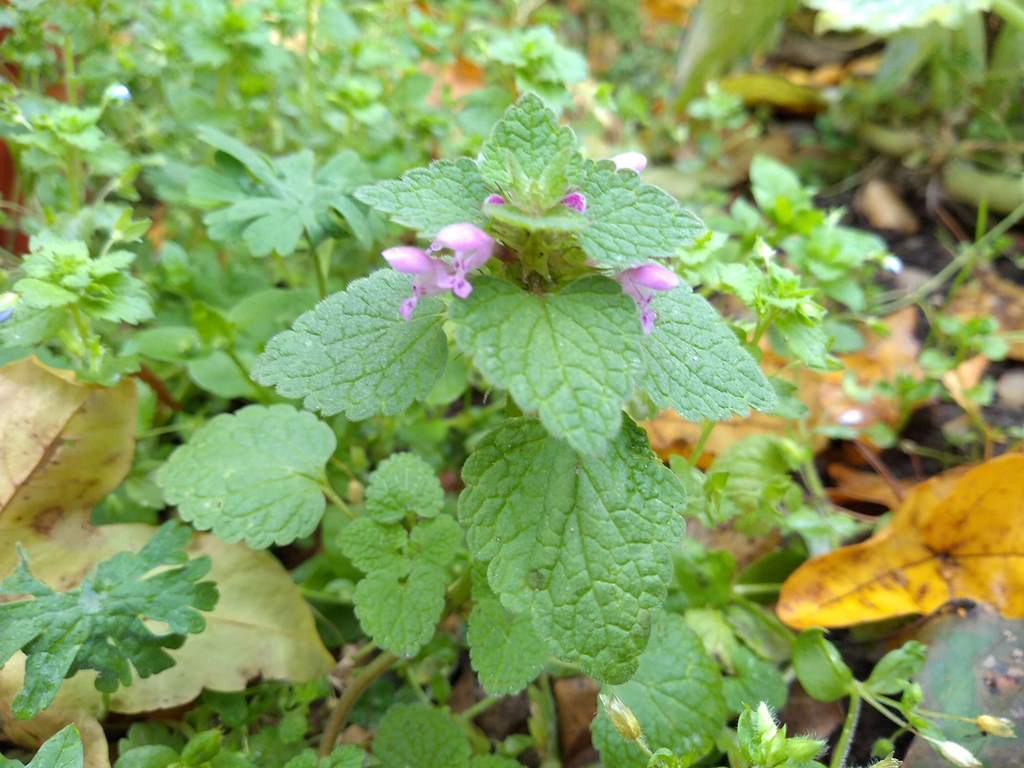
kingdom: Plantae
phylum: Tracheophyta
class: Magnoliopsida
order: Lamiales
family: Lamiaceae
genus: Lamium
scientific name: Lamium purpureum
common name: Red dead-nettle
